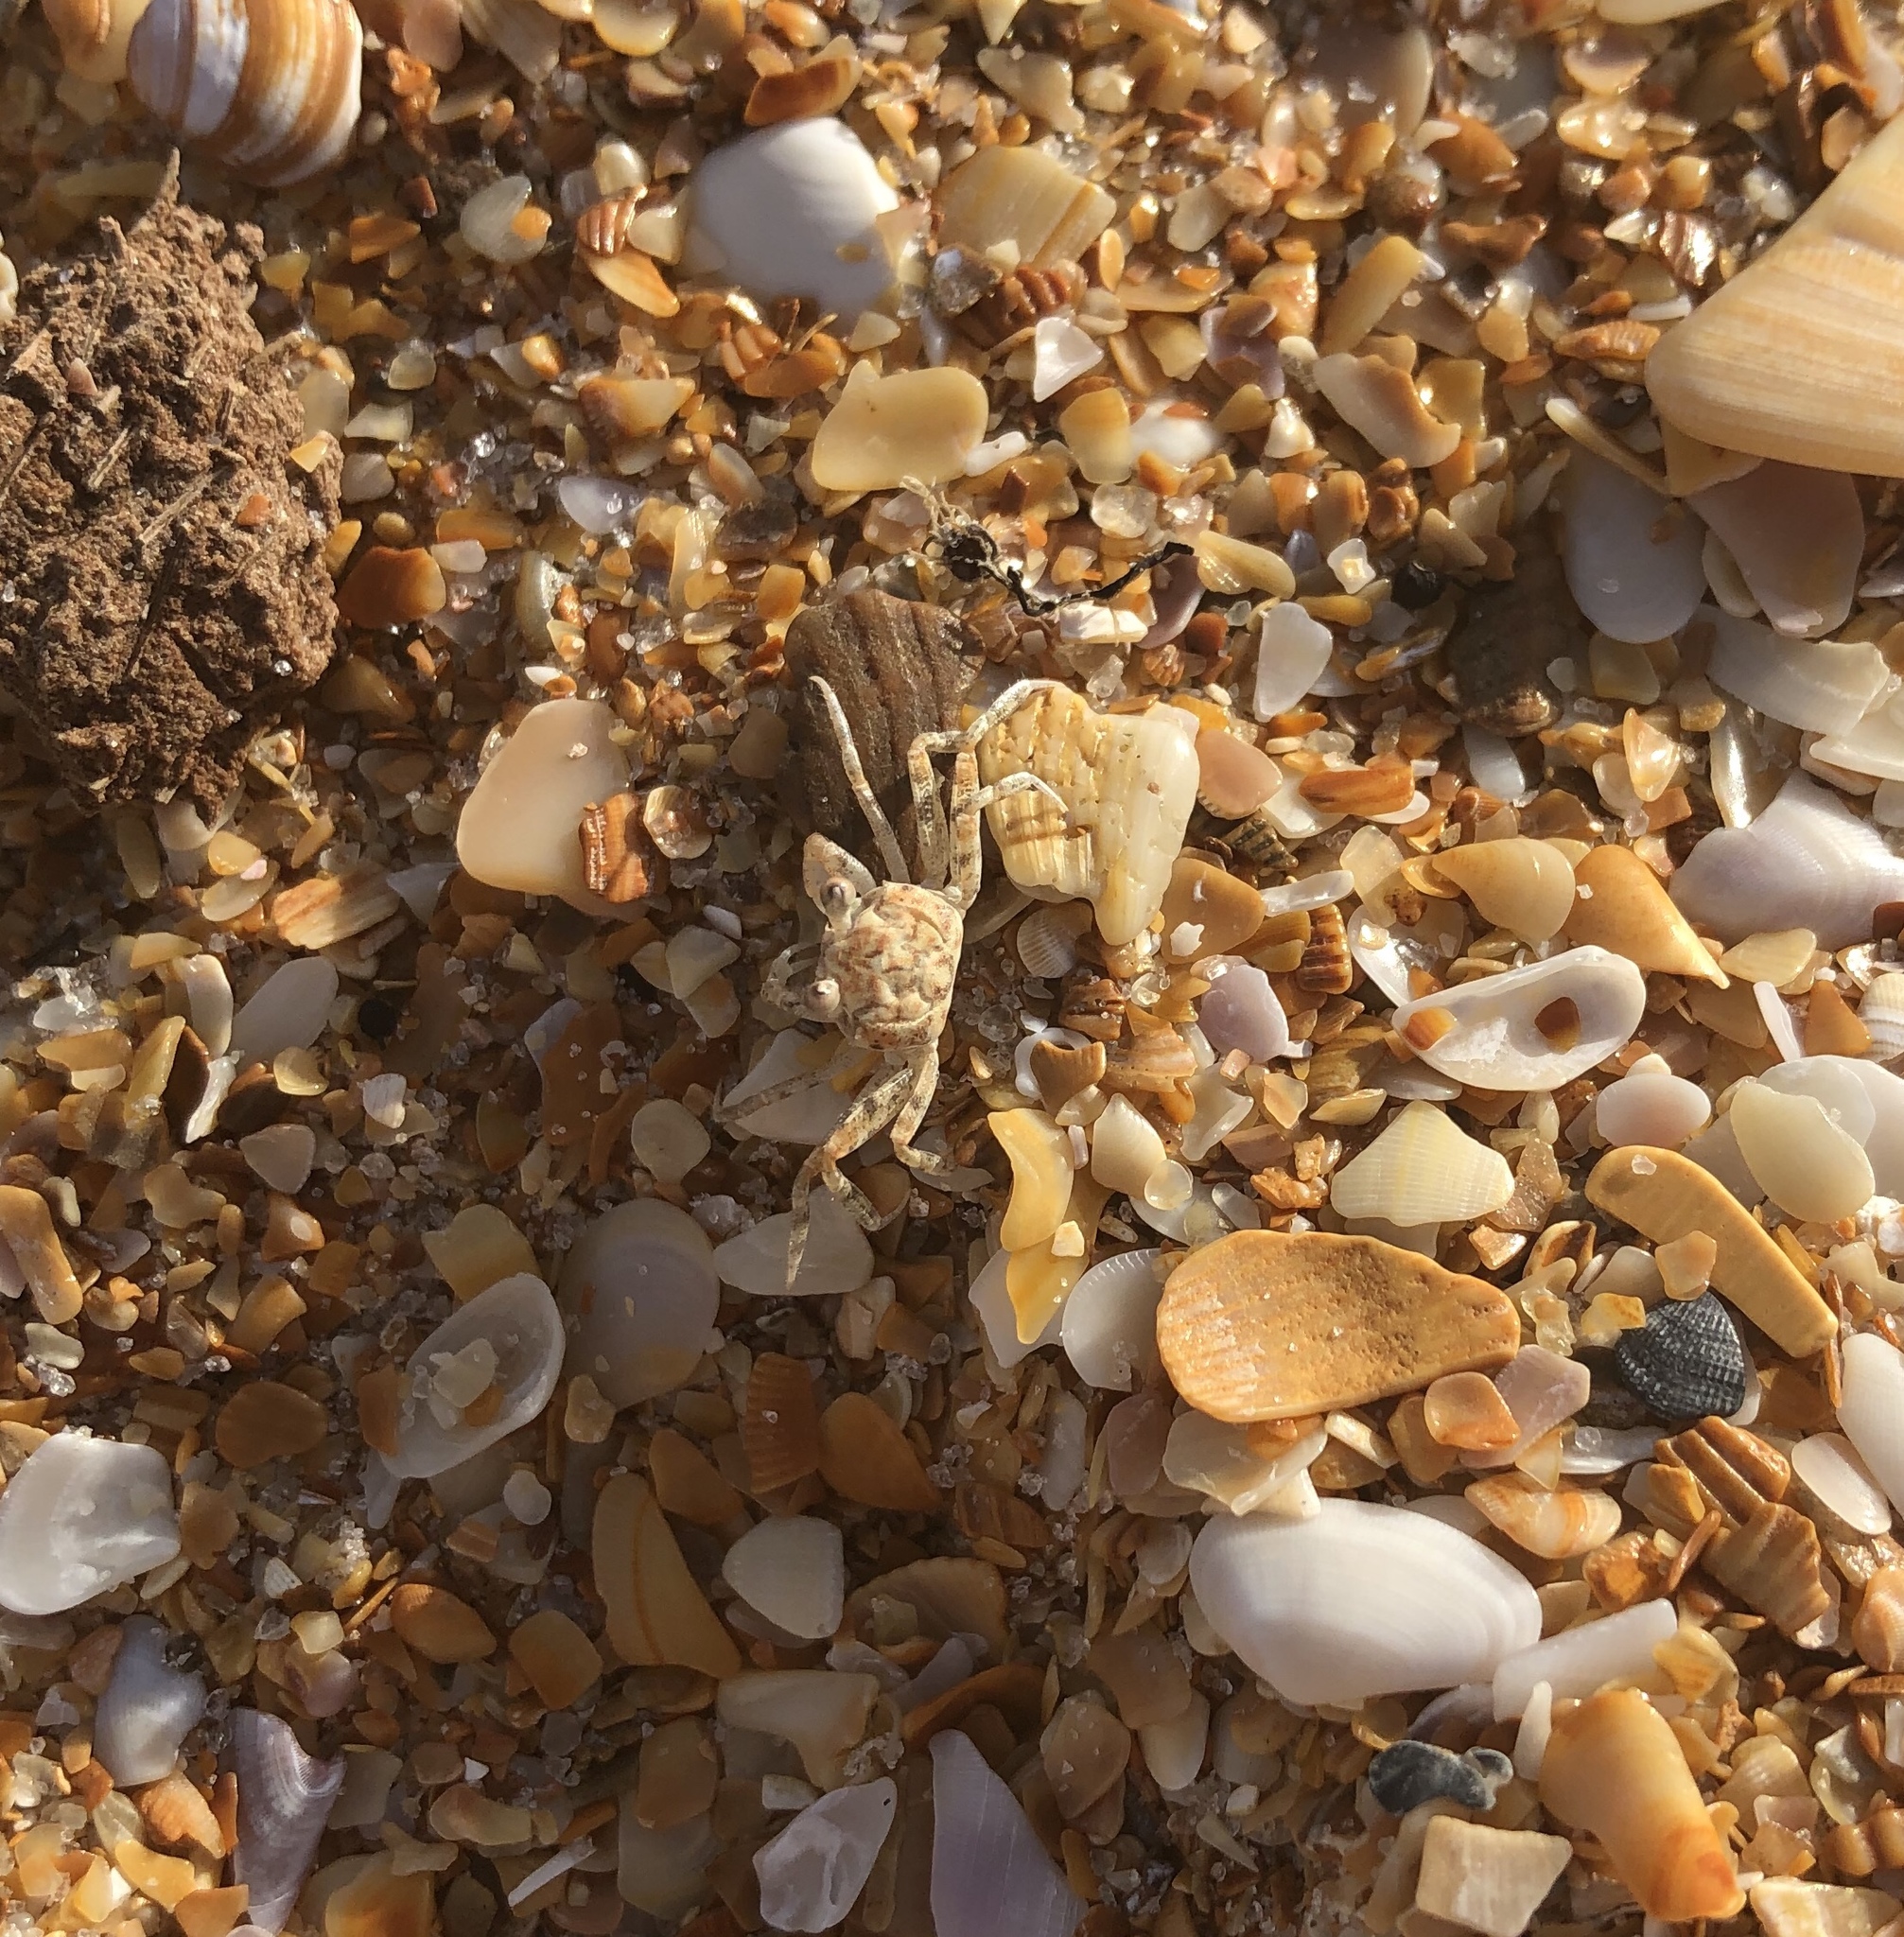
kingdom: Animalia
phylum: Arthropoda
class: Malacostraca
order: Decapoda
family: Ocypodidae
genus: Ocypode
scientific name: Ocypode quadrata
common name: Ghost crab
